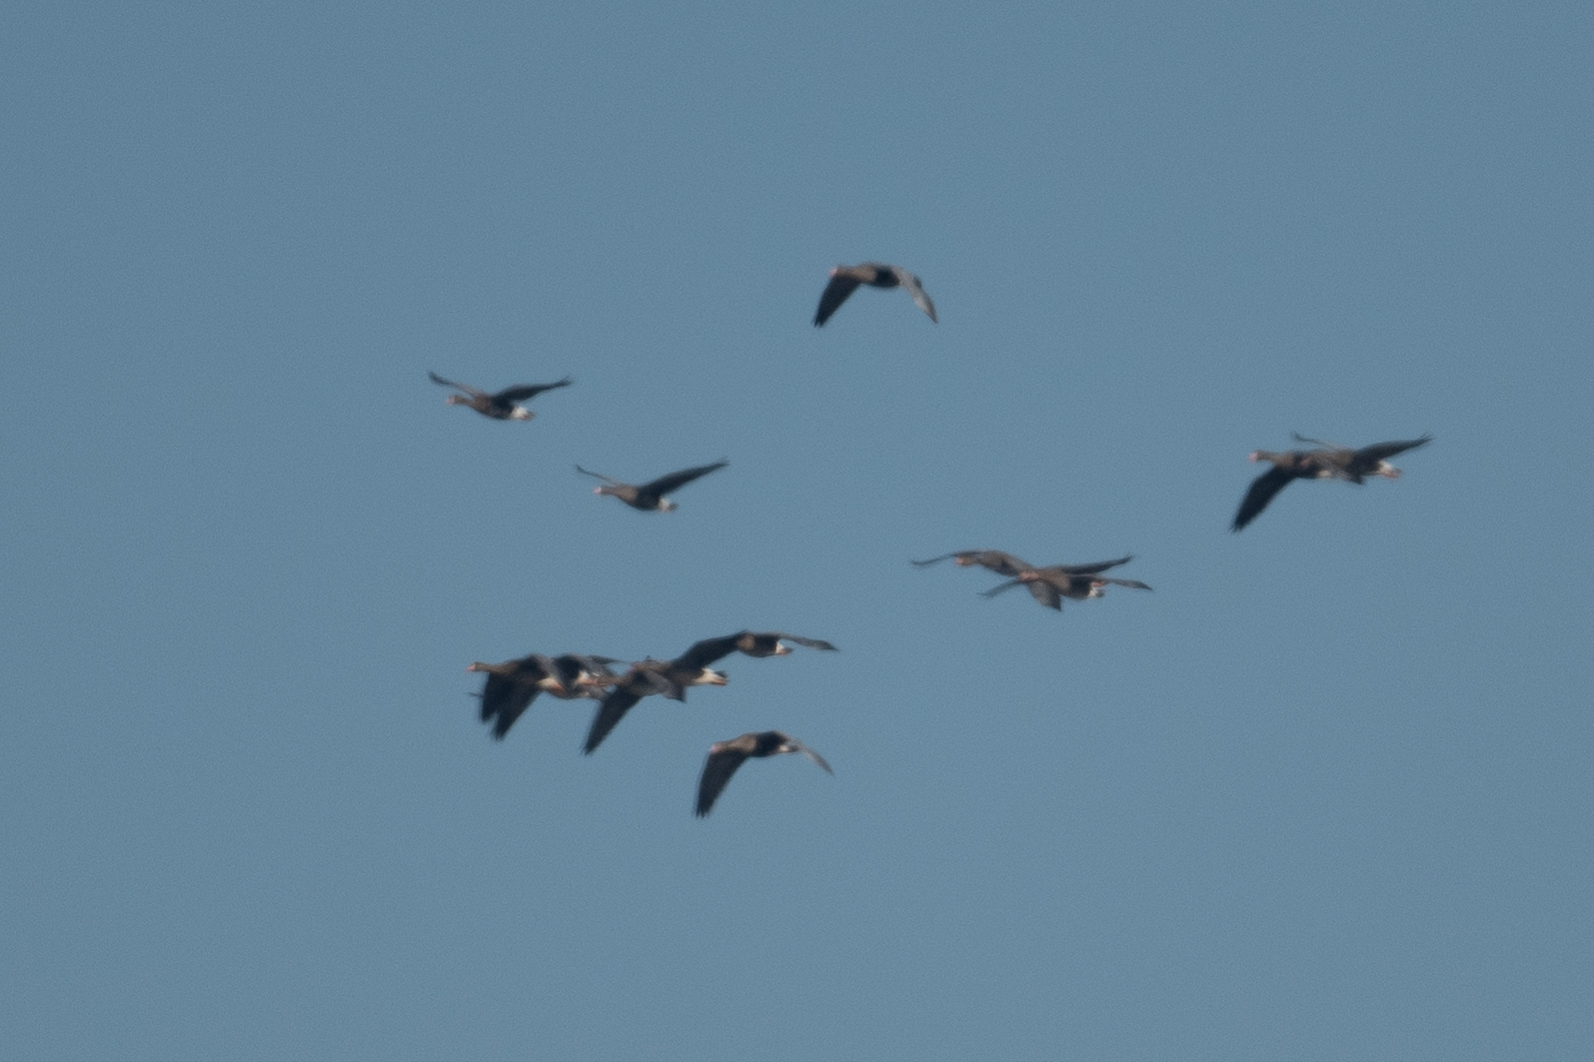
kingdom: Animalia
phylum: Chordata
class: Aves
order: Anseriformes
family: Anatidae
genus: Anser
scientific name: Anser albifrons
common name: Greater white-fronted goose
